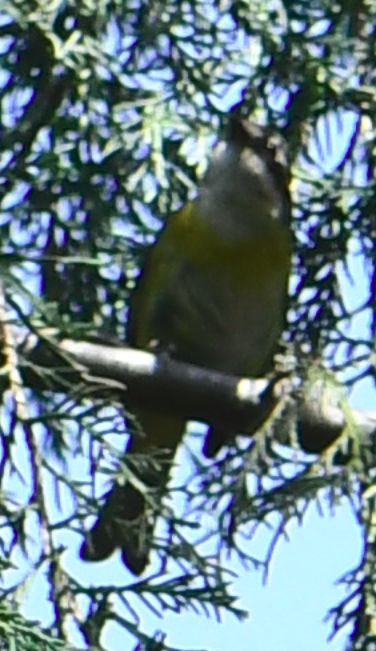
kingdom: Animalia
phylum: Chordata
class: Aves
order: Passeriformes
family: Passerellidae
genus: Chlorospingus
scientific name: Chlorospingus flavopectus
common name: Common chlorospingus
